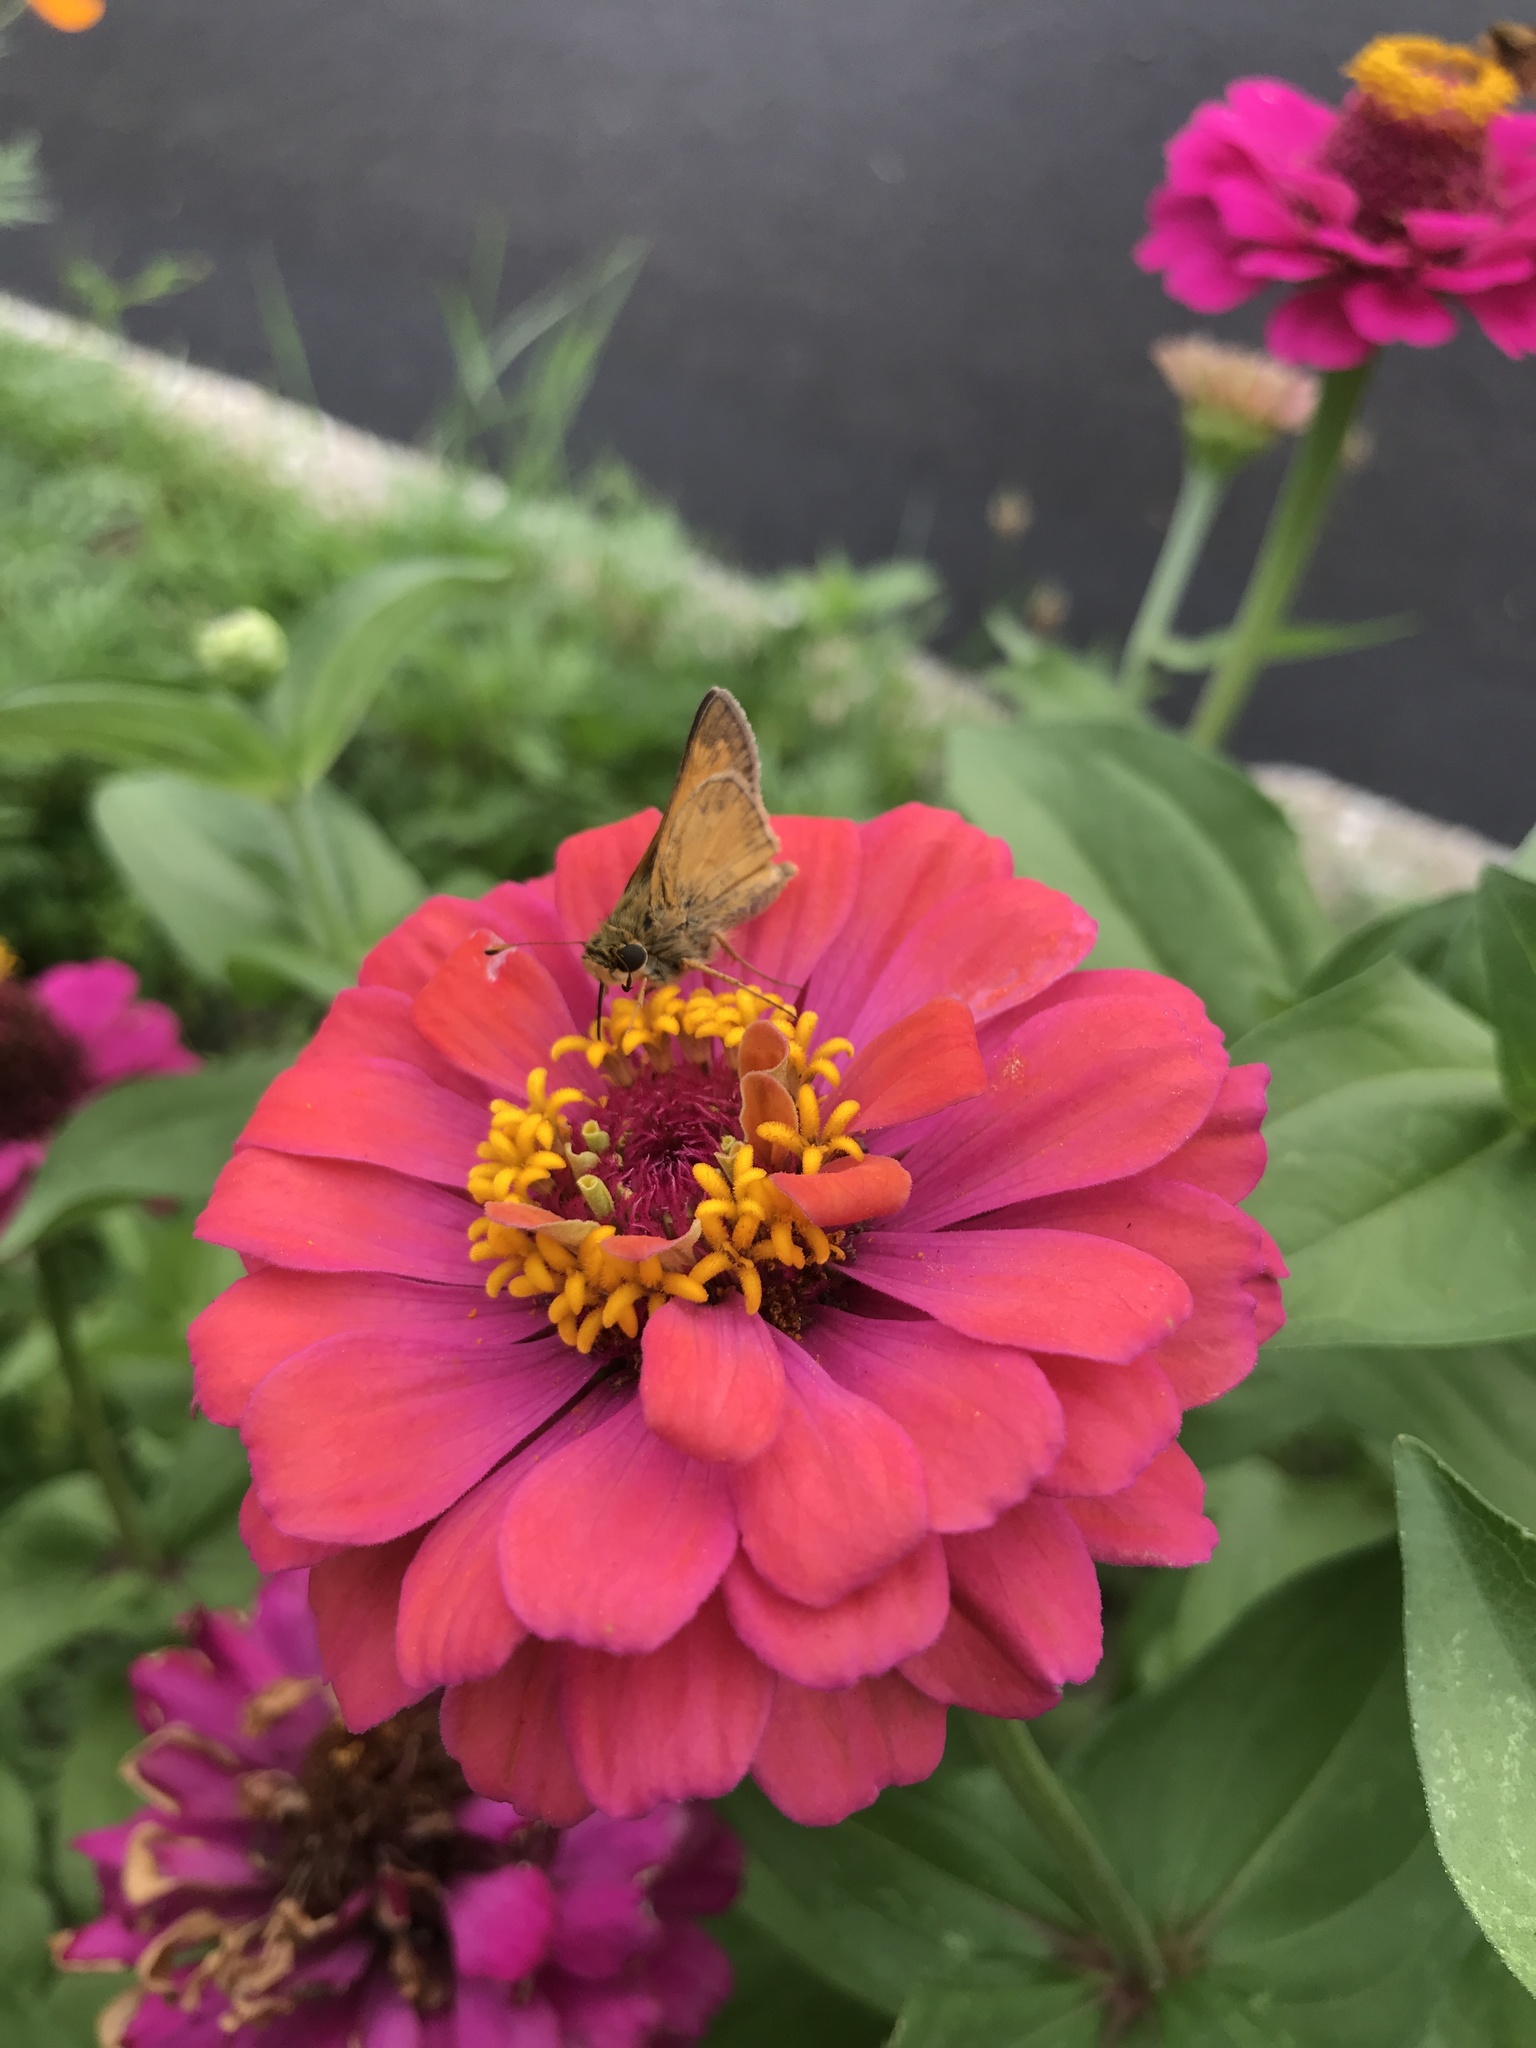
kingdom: Animalia
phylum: Arthropoda
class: Insecta
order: Lepidoptera
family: Hesperiidae
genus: Atalopedes
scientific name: Atalopedes
